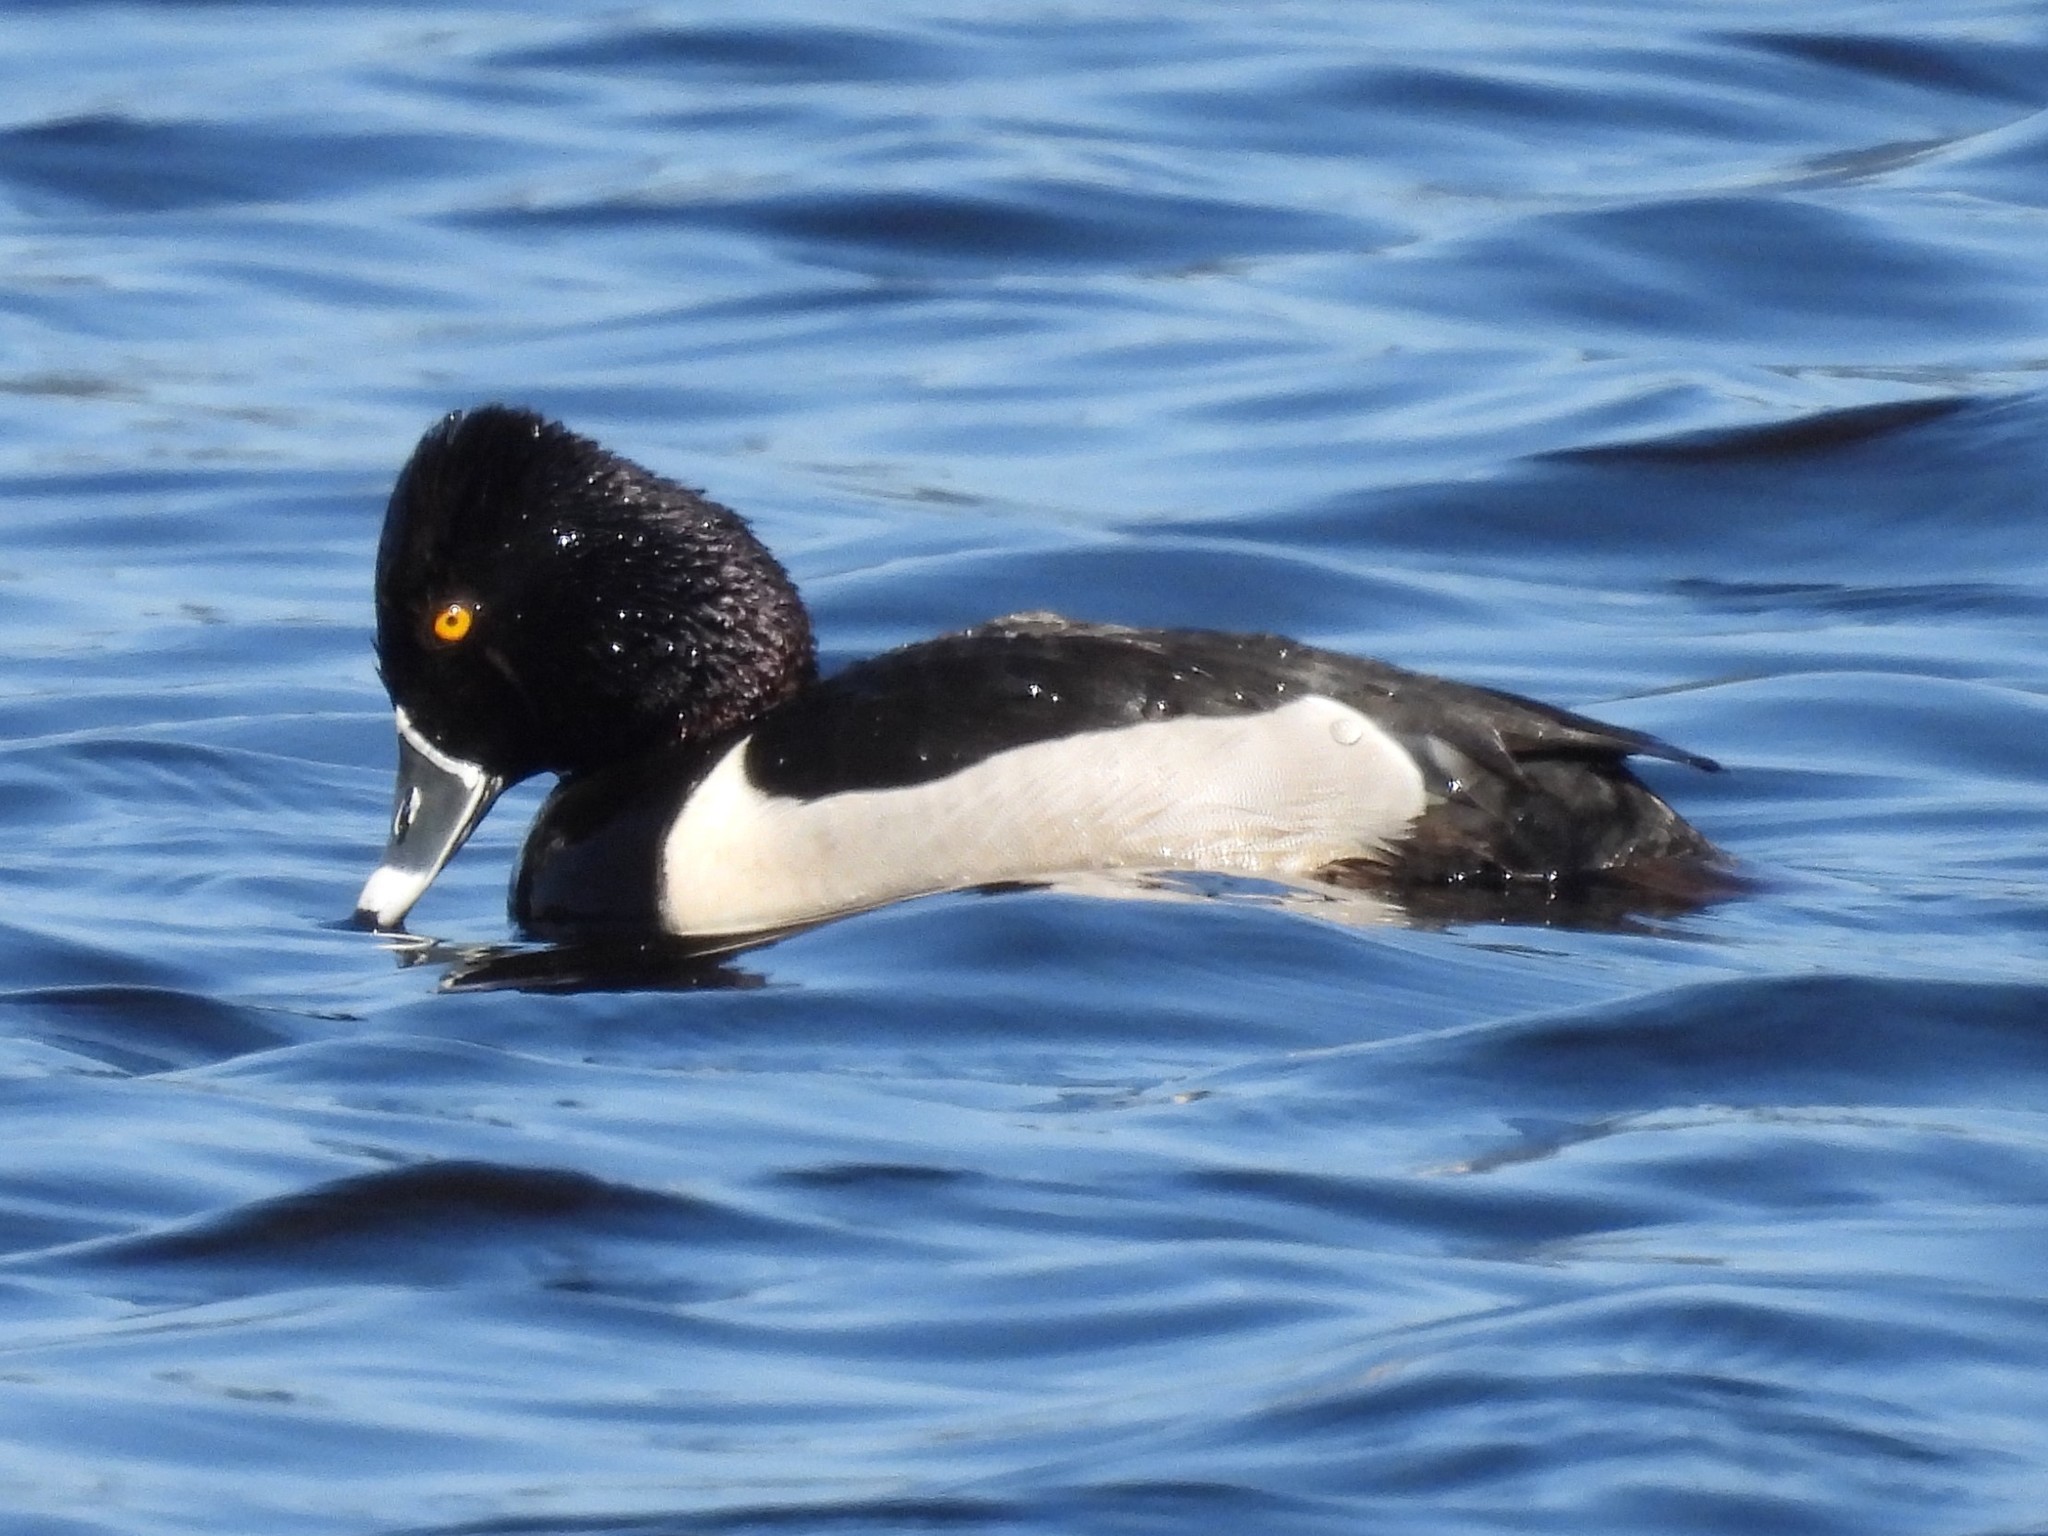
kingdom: Animalia
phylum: Chordata
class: Aves
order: Anseriformes
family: Anatidae
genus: Aythya
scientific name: Aythya collaris
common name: Ring-necked duck
